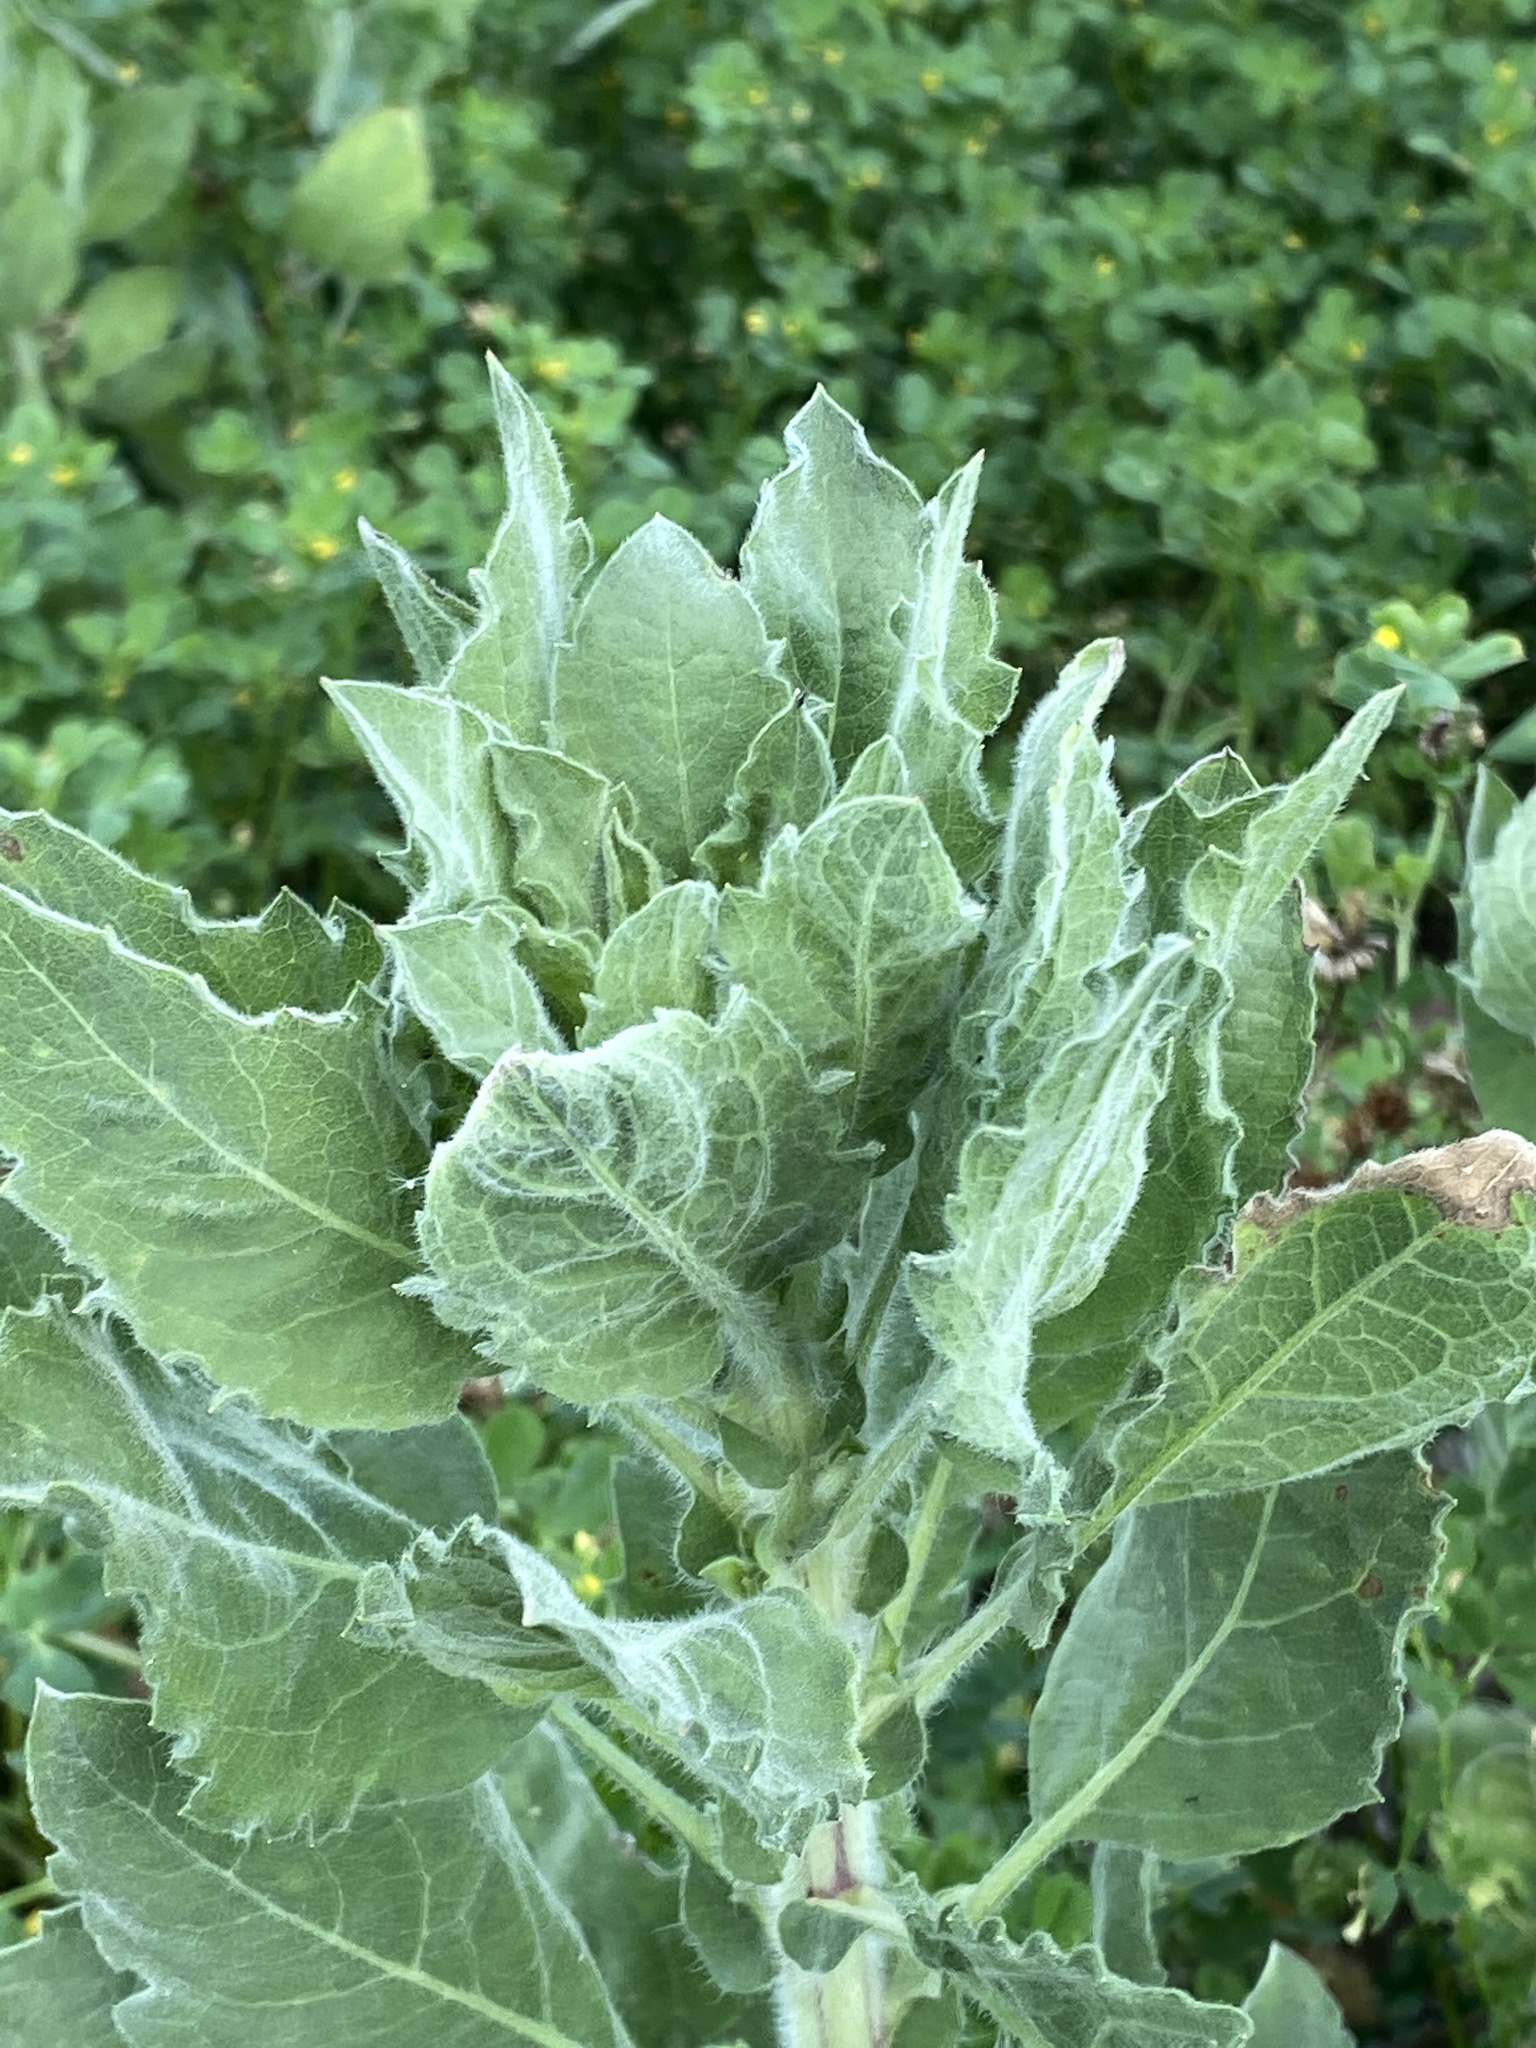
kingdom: Plantae
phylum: Tracheophyta
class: Magnoliopsida
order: Asterales
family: Asteraceae
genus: Heterotheca
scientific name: Heterotheca grandiflora
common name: Telegraphweed
